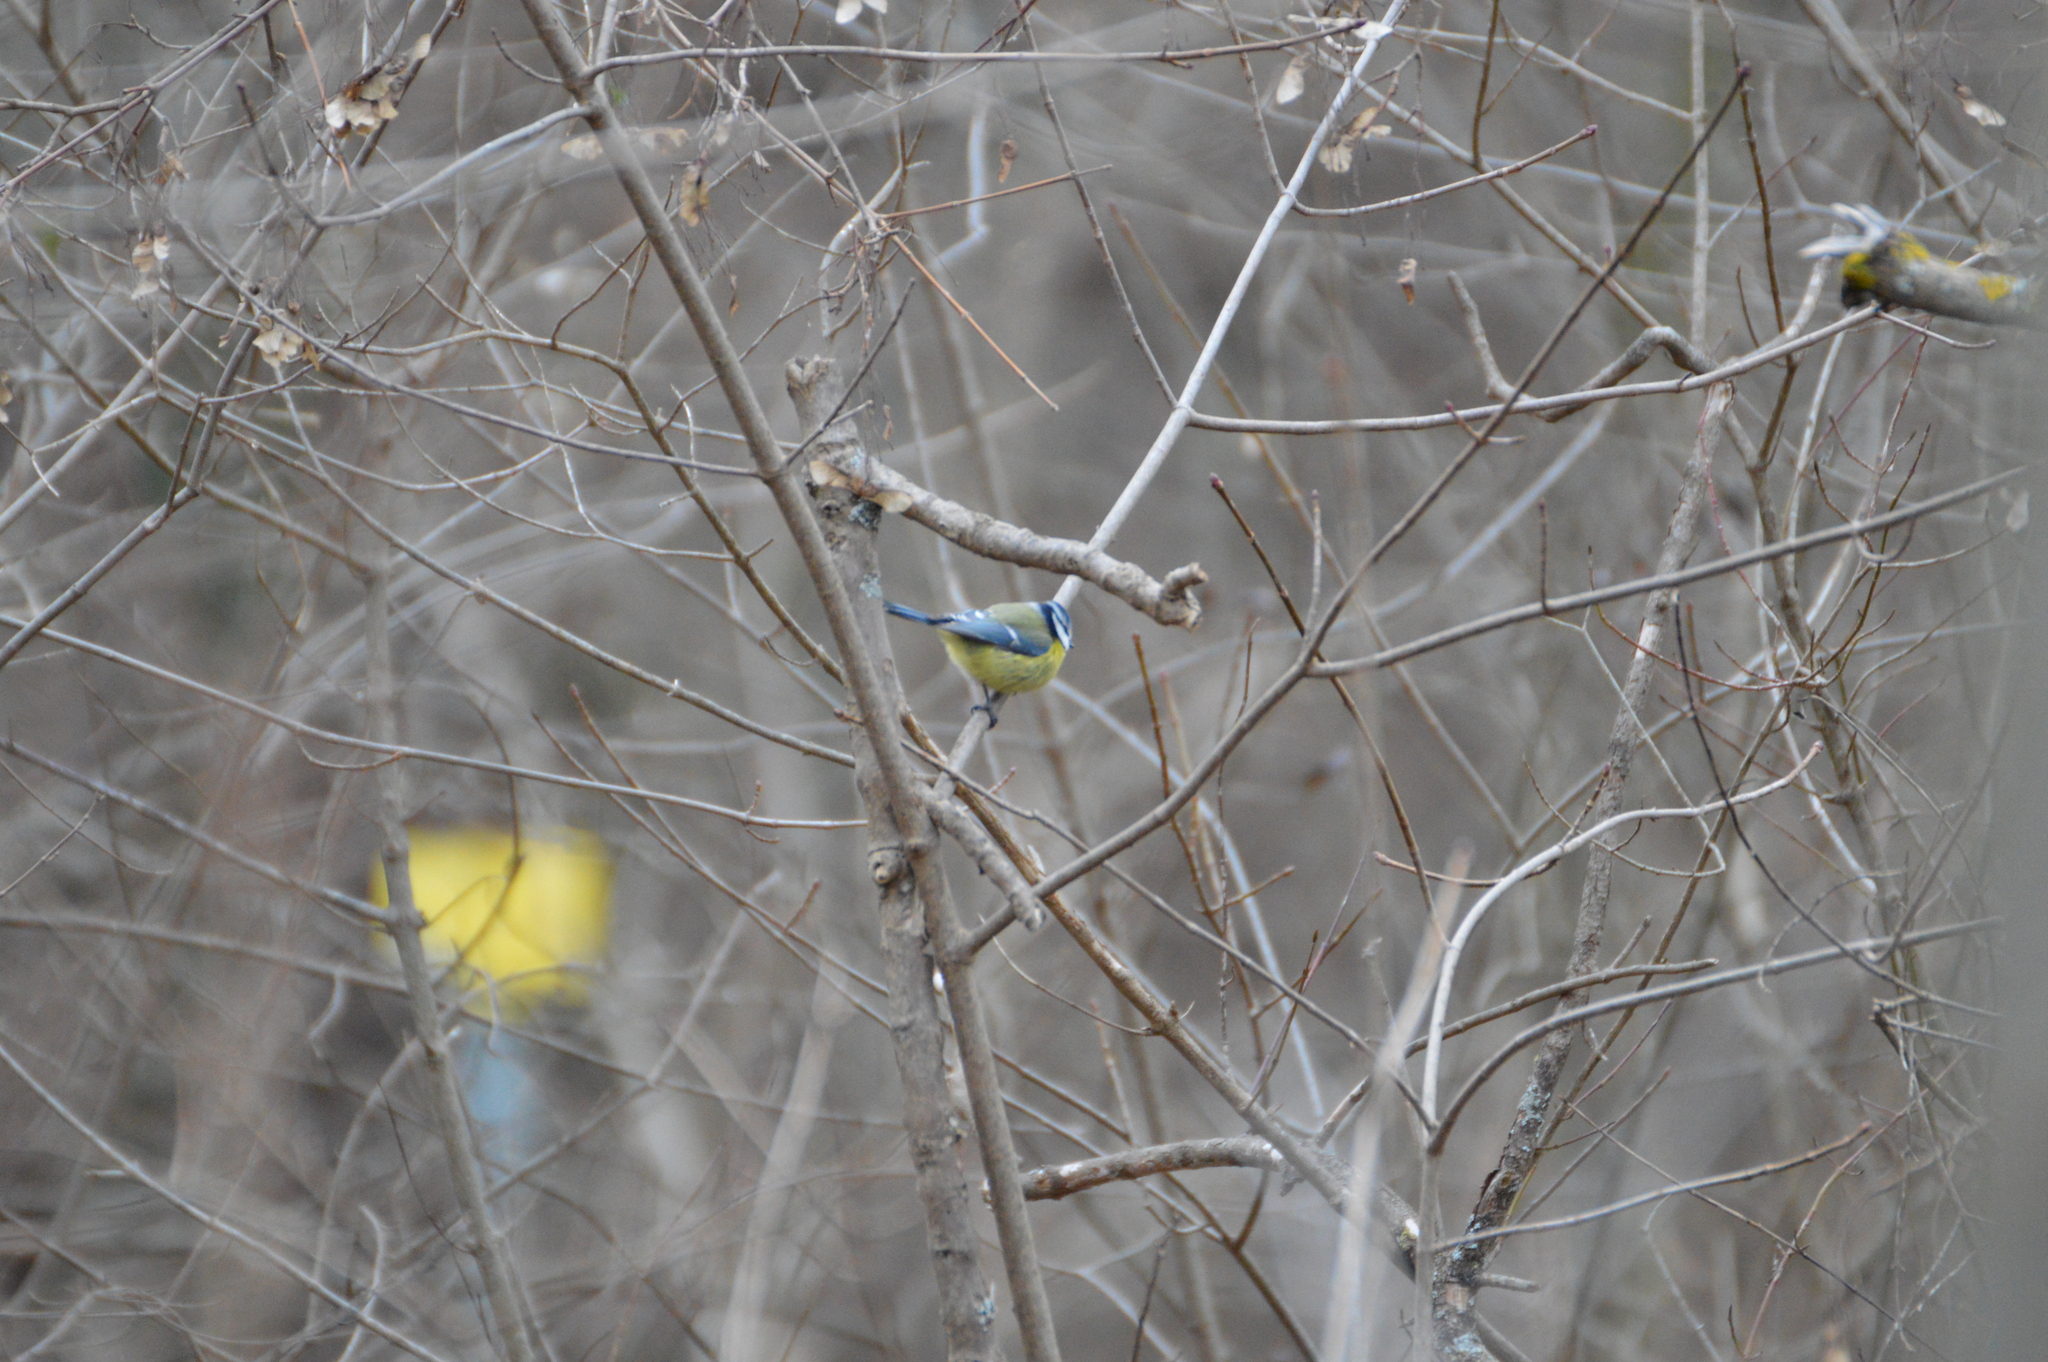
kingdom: Animalia
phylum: Chordata
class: Aves
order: Passeriformes
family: Paridae
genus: Cyanistes
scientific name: Cyanistes caeruleus
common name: Eurasian blue tit
